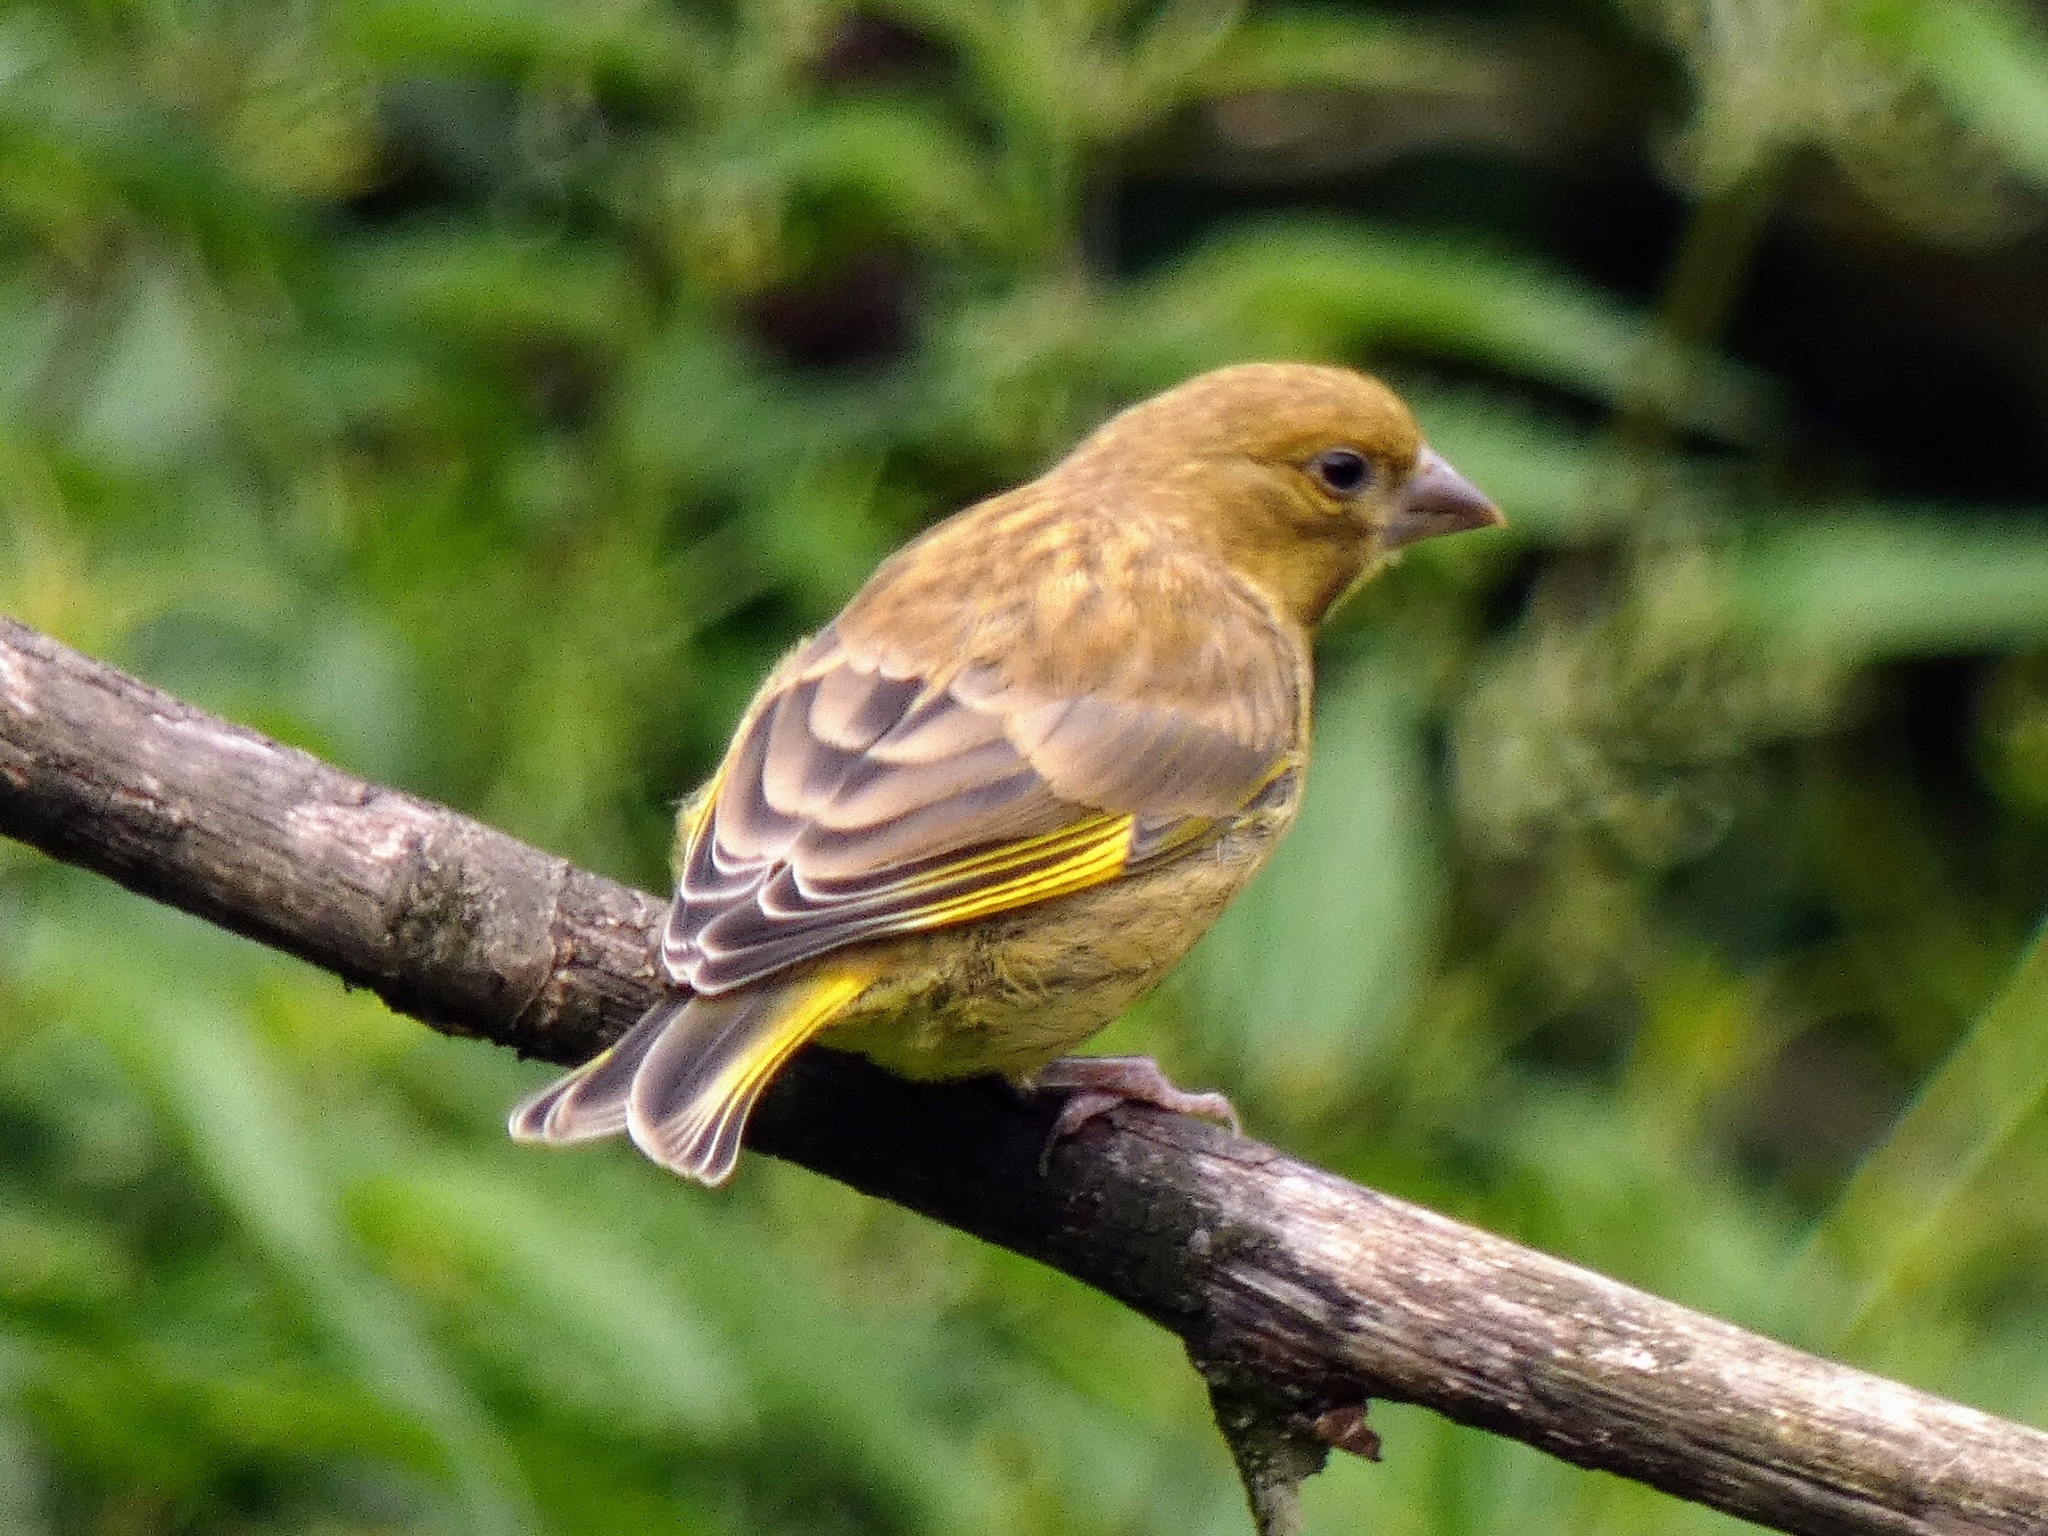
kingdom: Plantae
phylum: Tracheophyta
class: Liliopsida
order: Poales
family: Poaceae
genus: Chloris
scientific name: Chloris chloris
